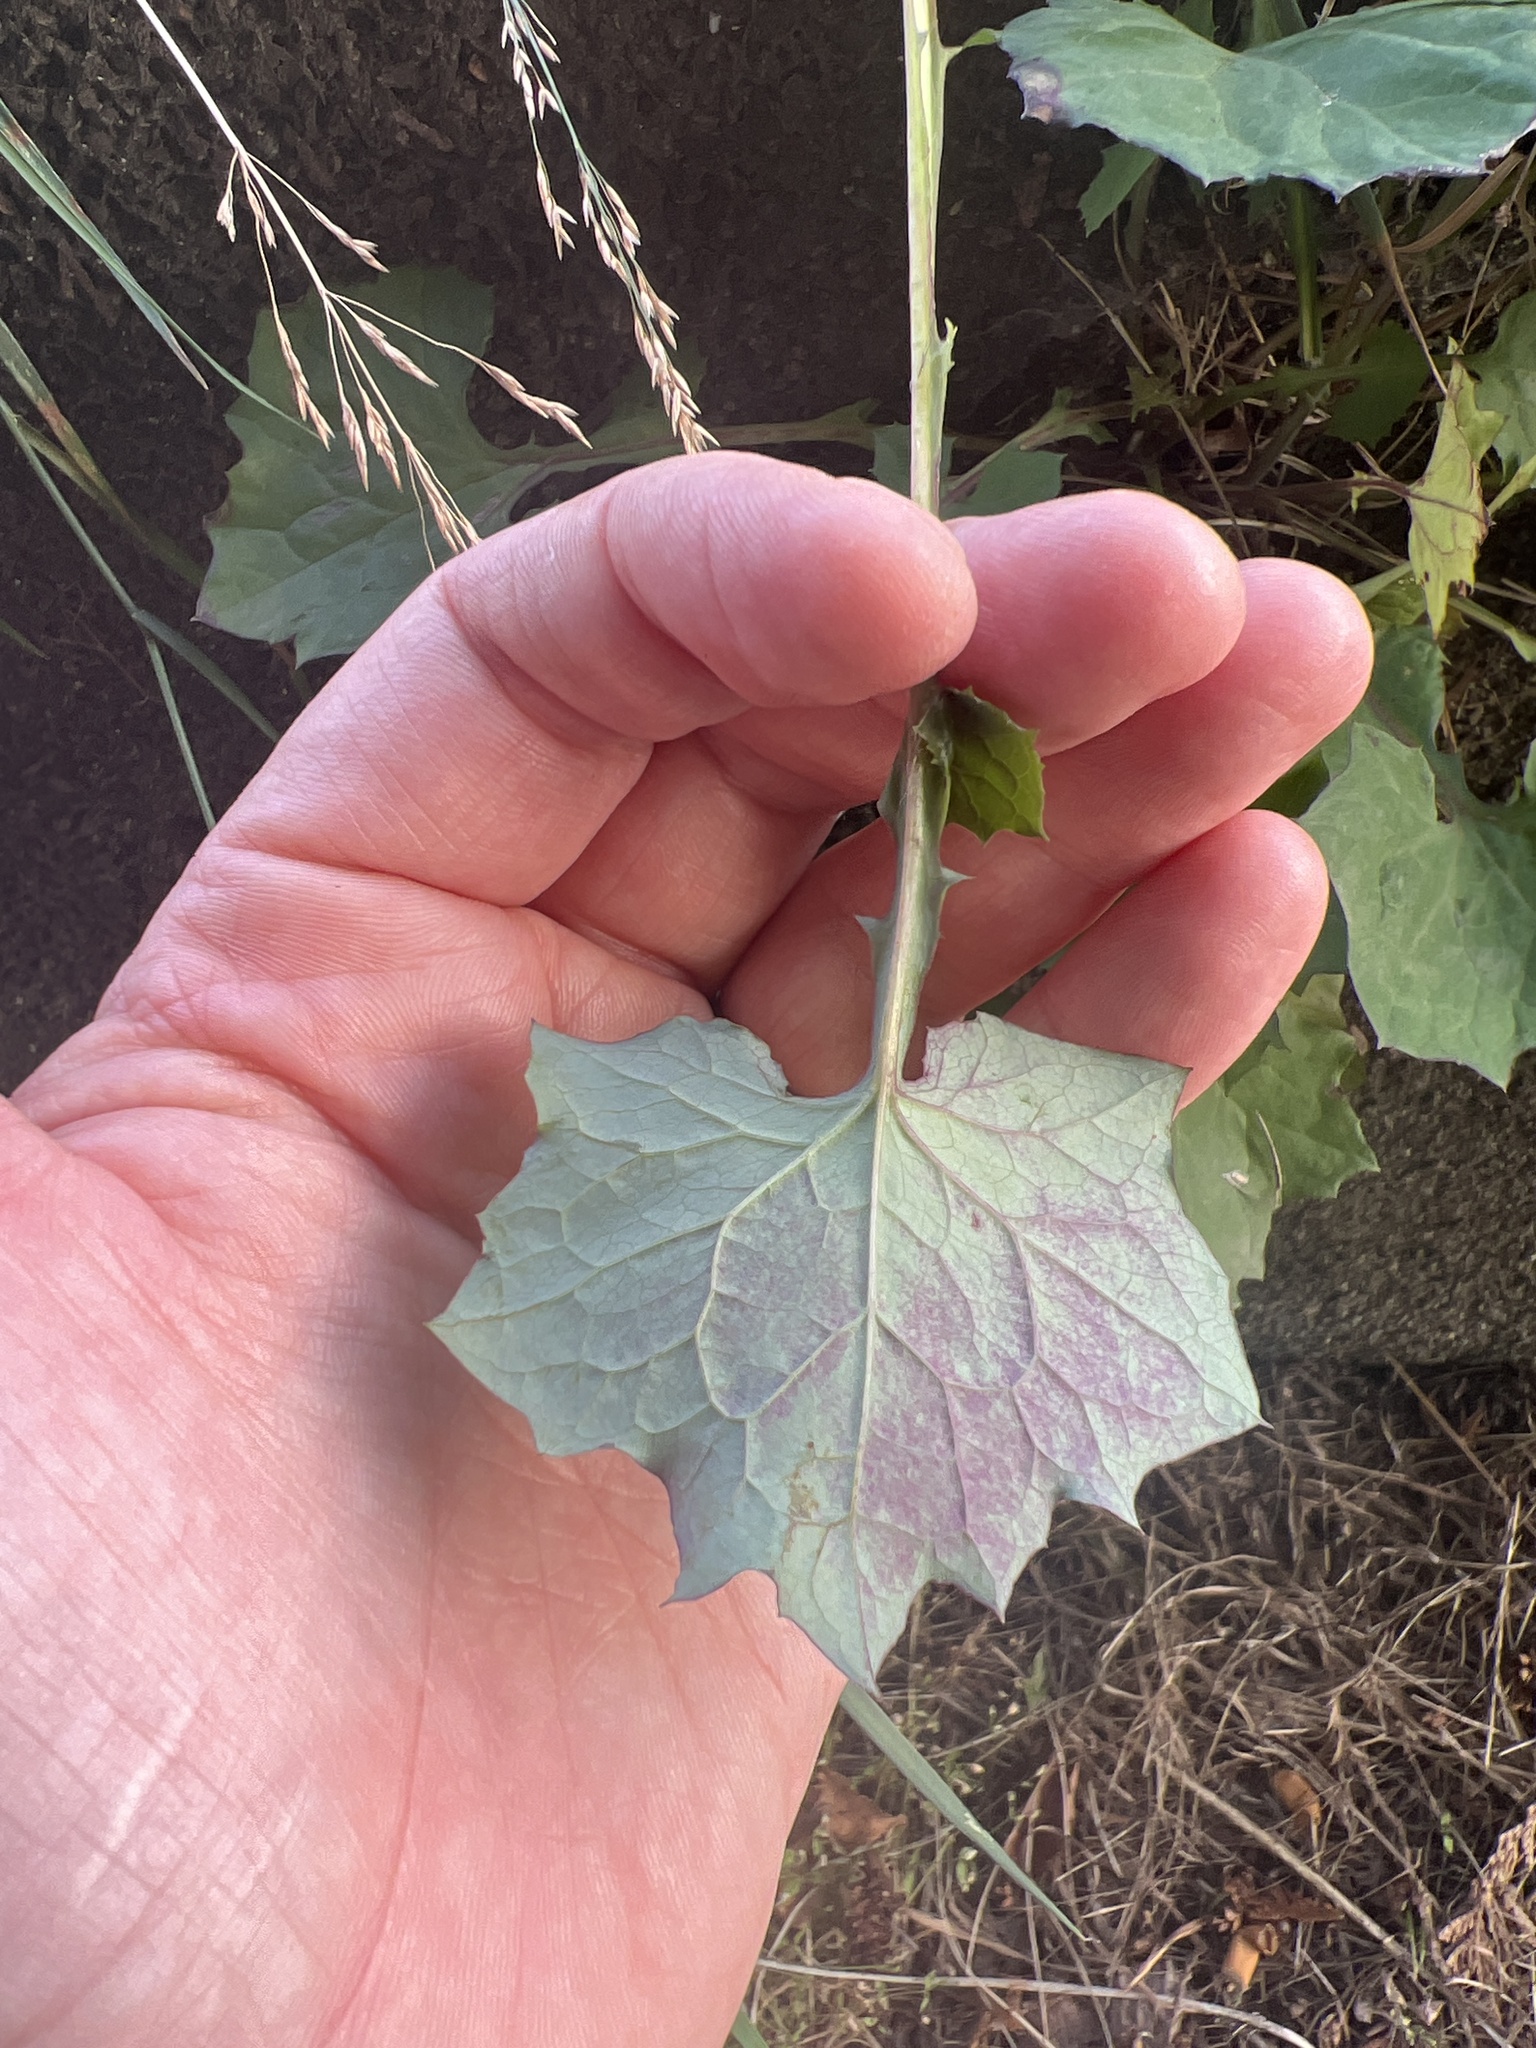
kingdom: Plantae
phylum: Tracheophyta
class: Magnoliopsida
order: Asterales
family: Asteraceae
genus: Mycelis
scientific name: Mycelis muralis
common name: Wall lettuce
